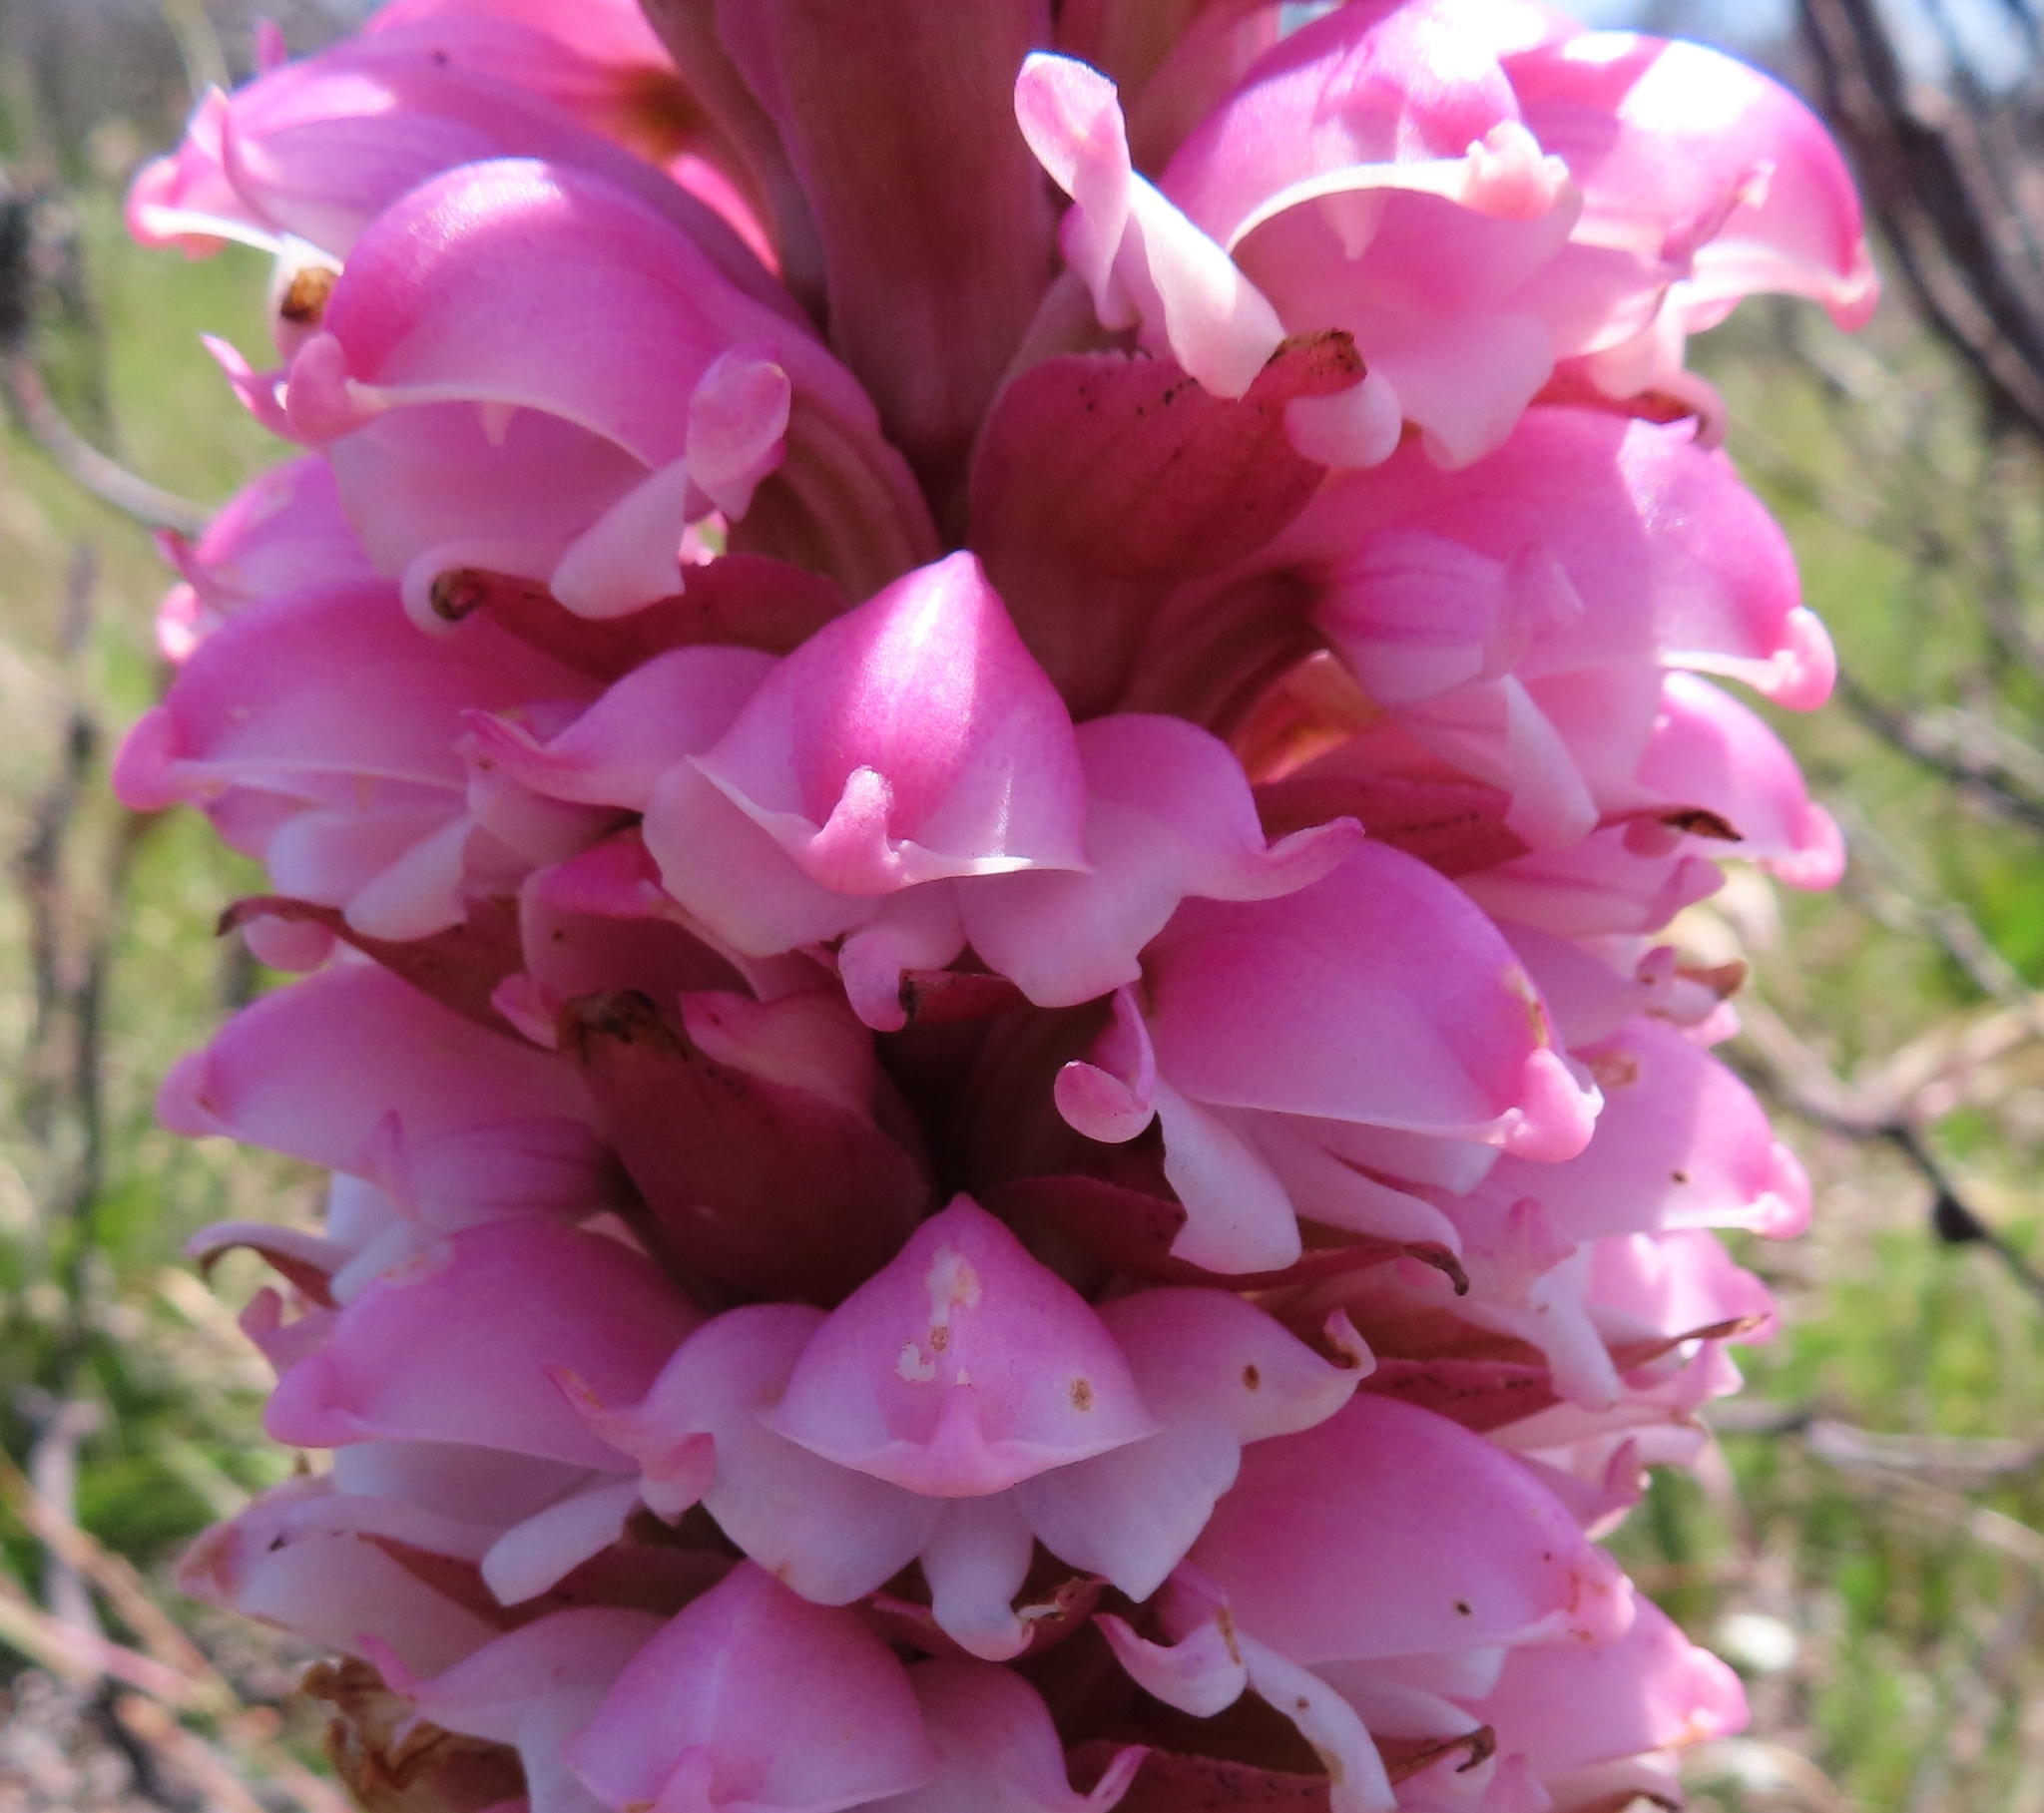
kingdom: Plantae
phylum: Tracheophyta
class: Liliopsida
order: Asparagales
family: Orchidaceae
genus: Satyrium
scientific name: Satyrium carneum
